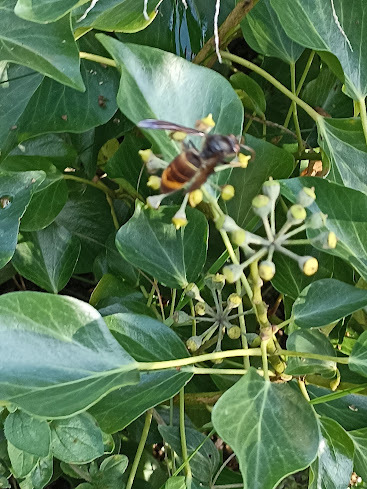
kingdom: Animalia
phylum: Arthropoda
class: Insecta
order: Hymenoptera
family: Vespidae
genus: Vespa
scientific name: Vespa velutina
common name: Asian hornet
